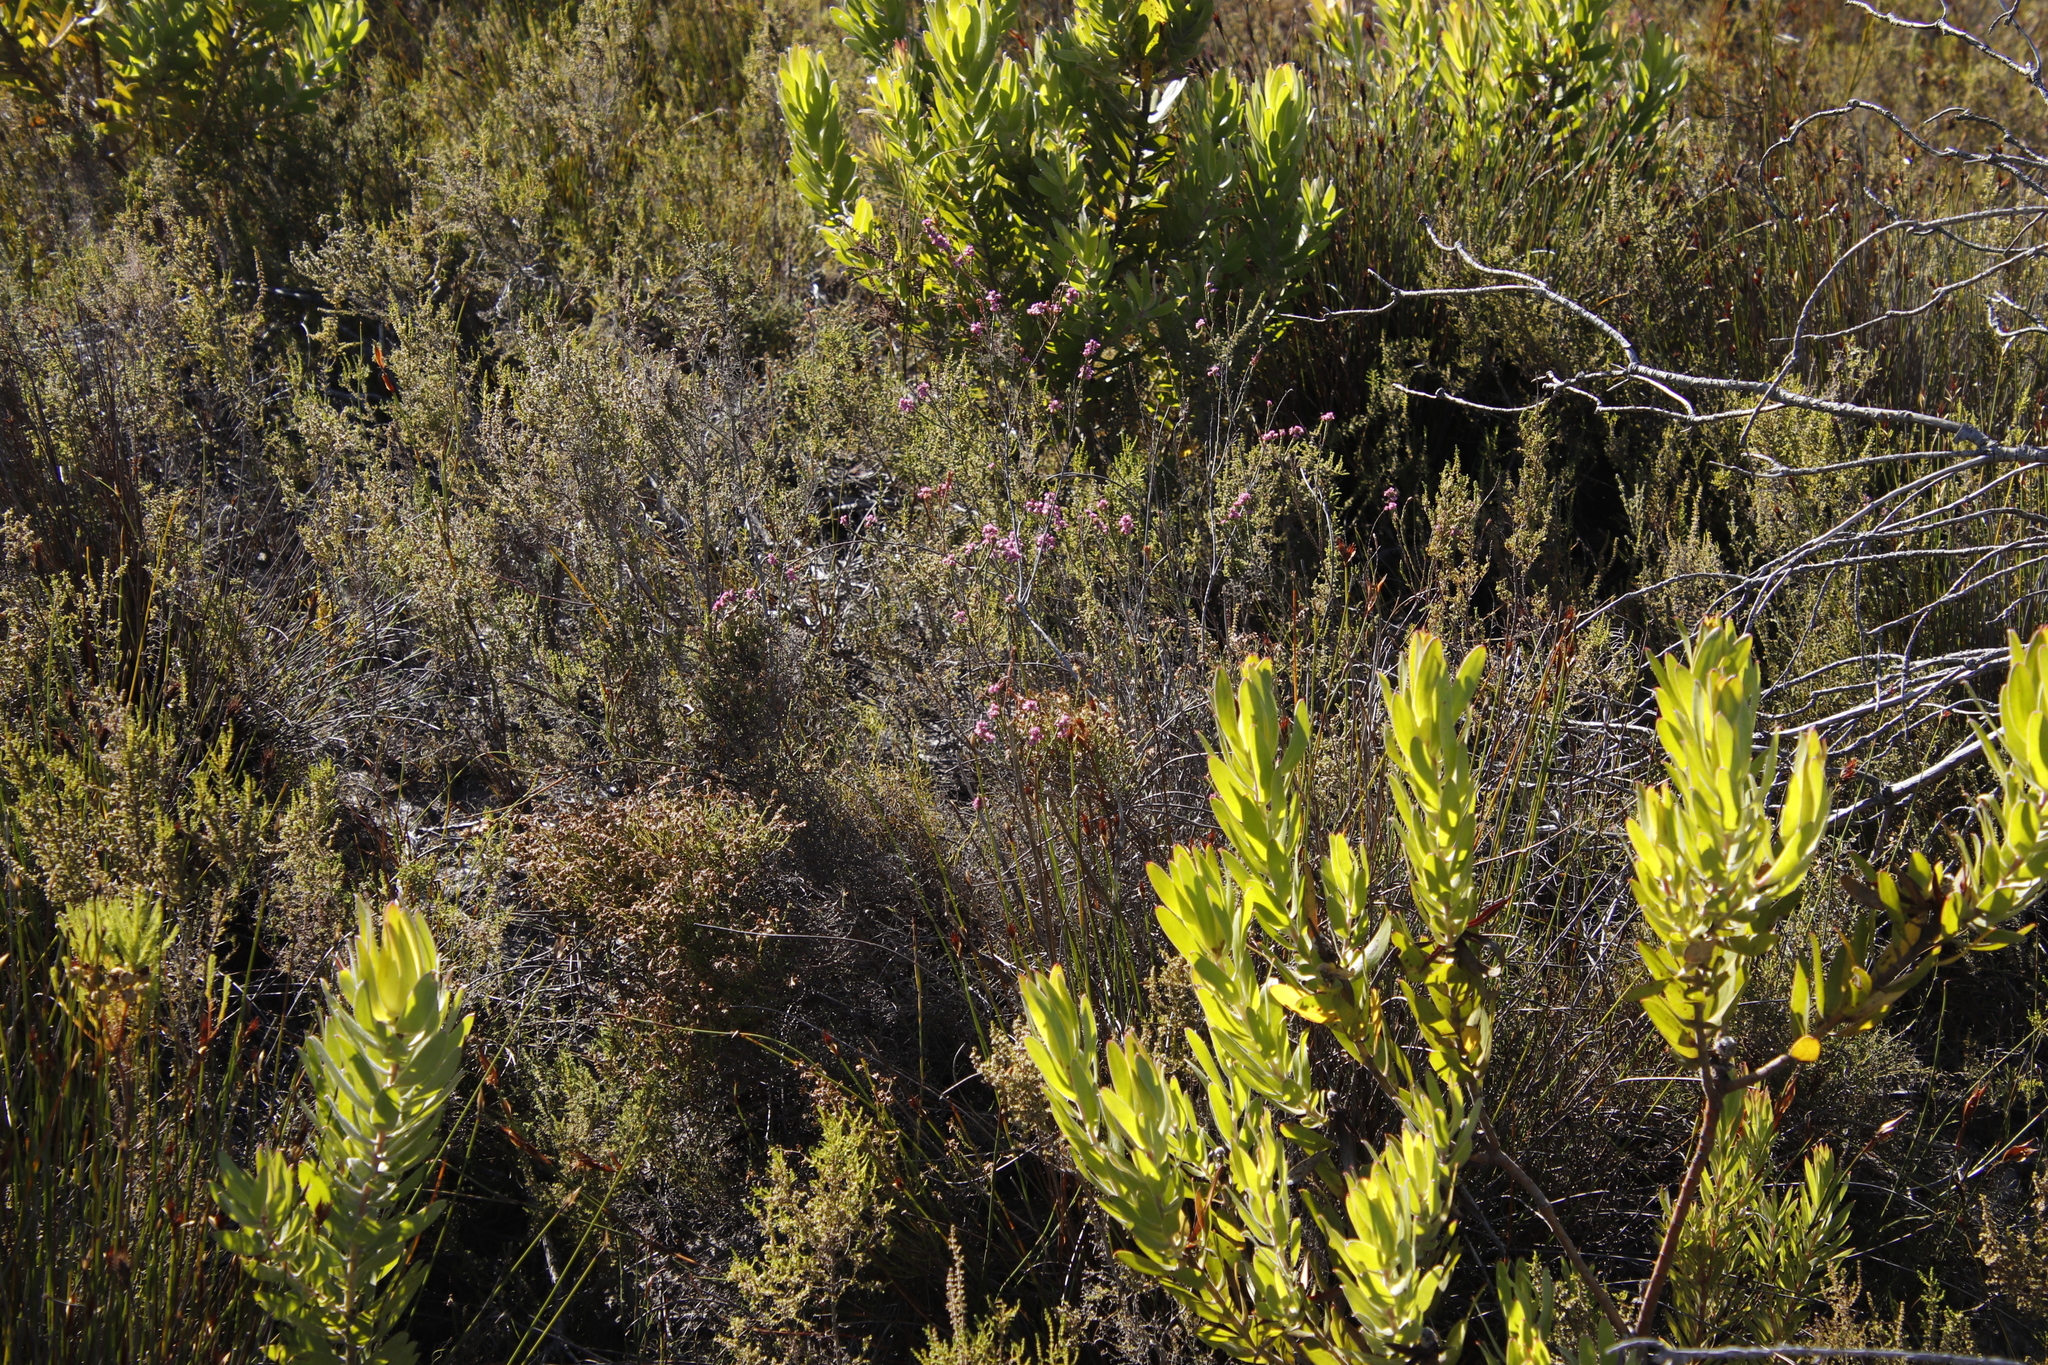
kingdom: Plantae
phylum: Tracheophyta
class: Magnoliopsida
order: Ericales
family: Ericaceae
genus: Erica
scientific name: Erica corifolia
